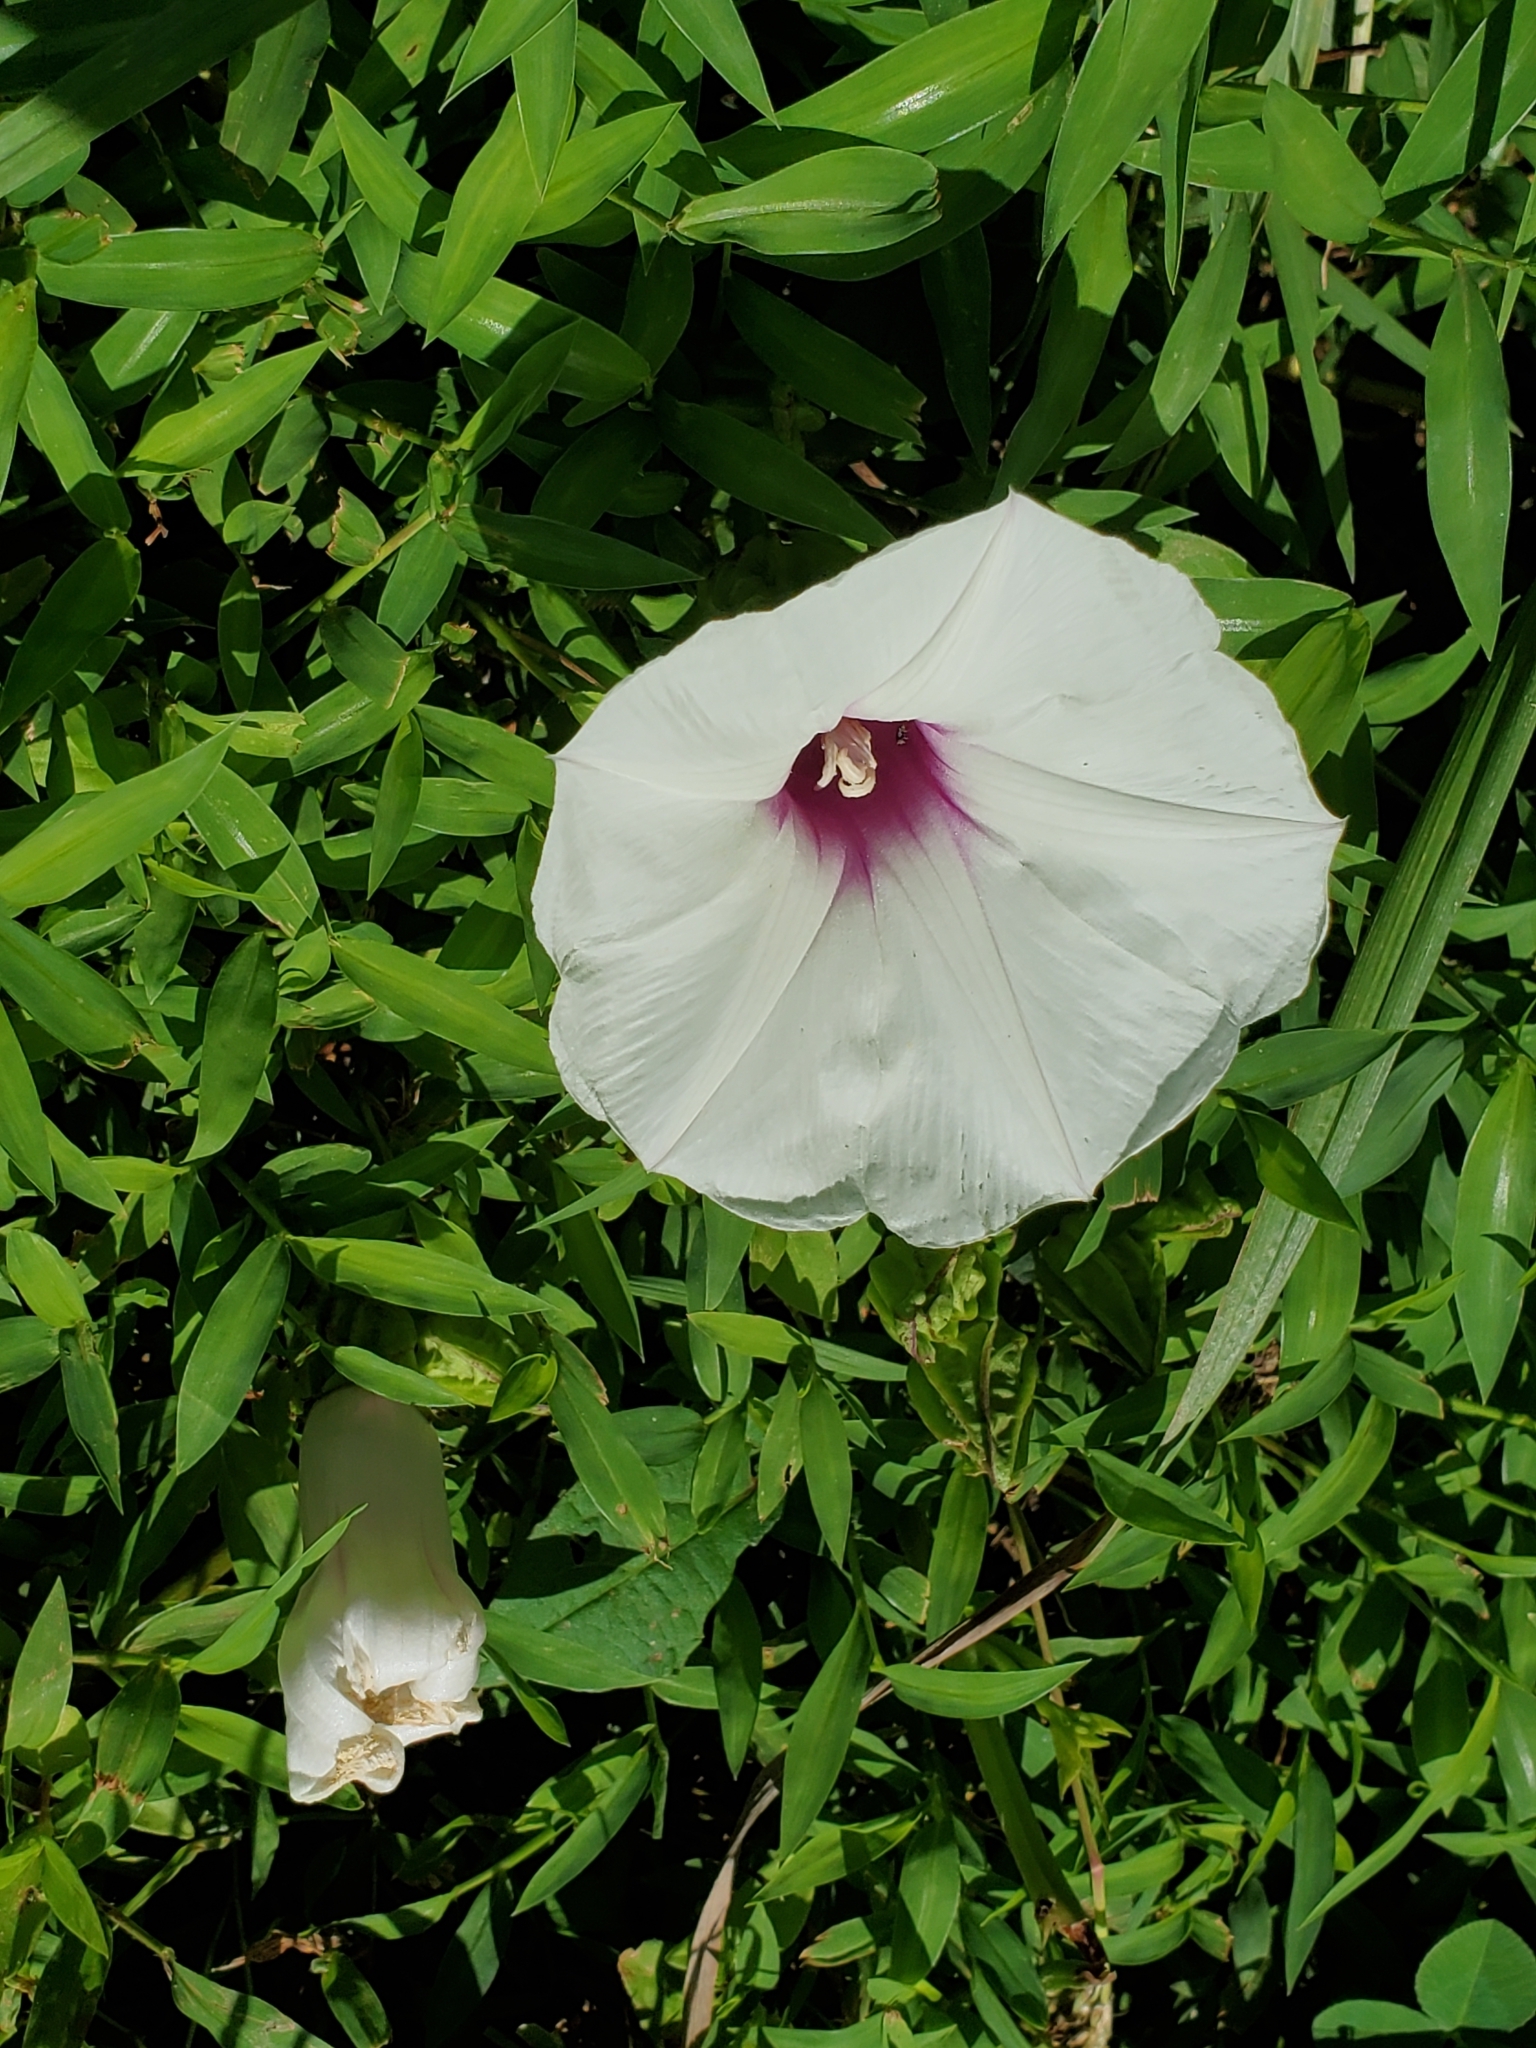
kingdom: Plantae
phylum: Tracheophyta
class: Magnoliopsida
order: Solanales
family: Convolvulaceae
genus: Ipomoea
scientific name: Ipomoea pandurata
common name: Man-of-the-earth
